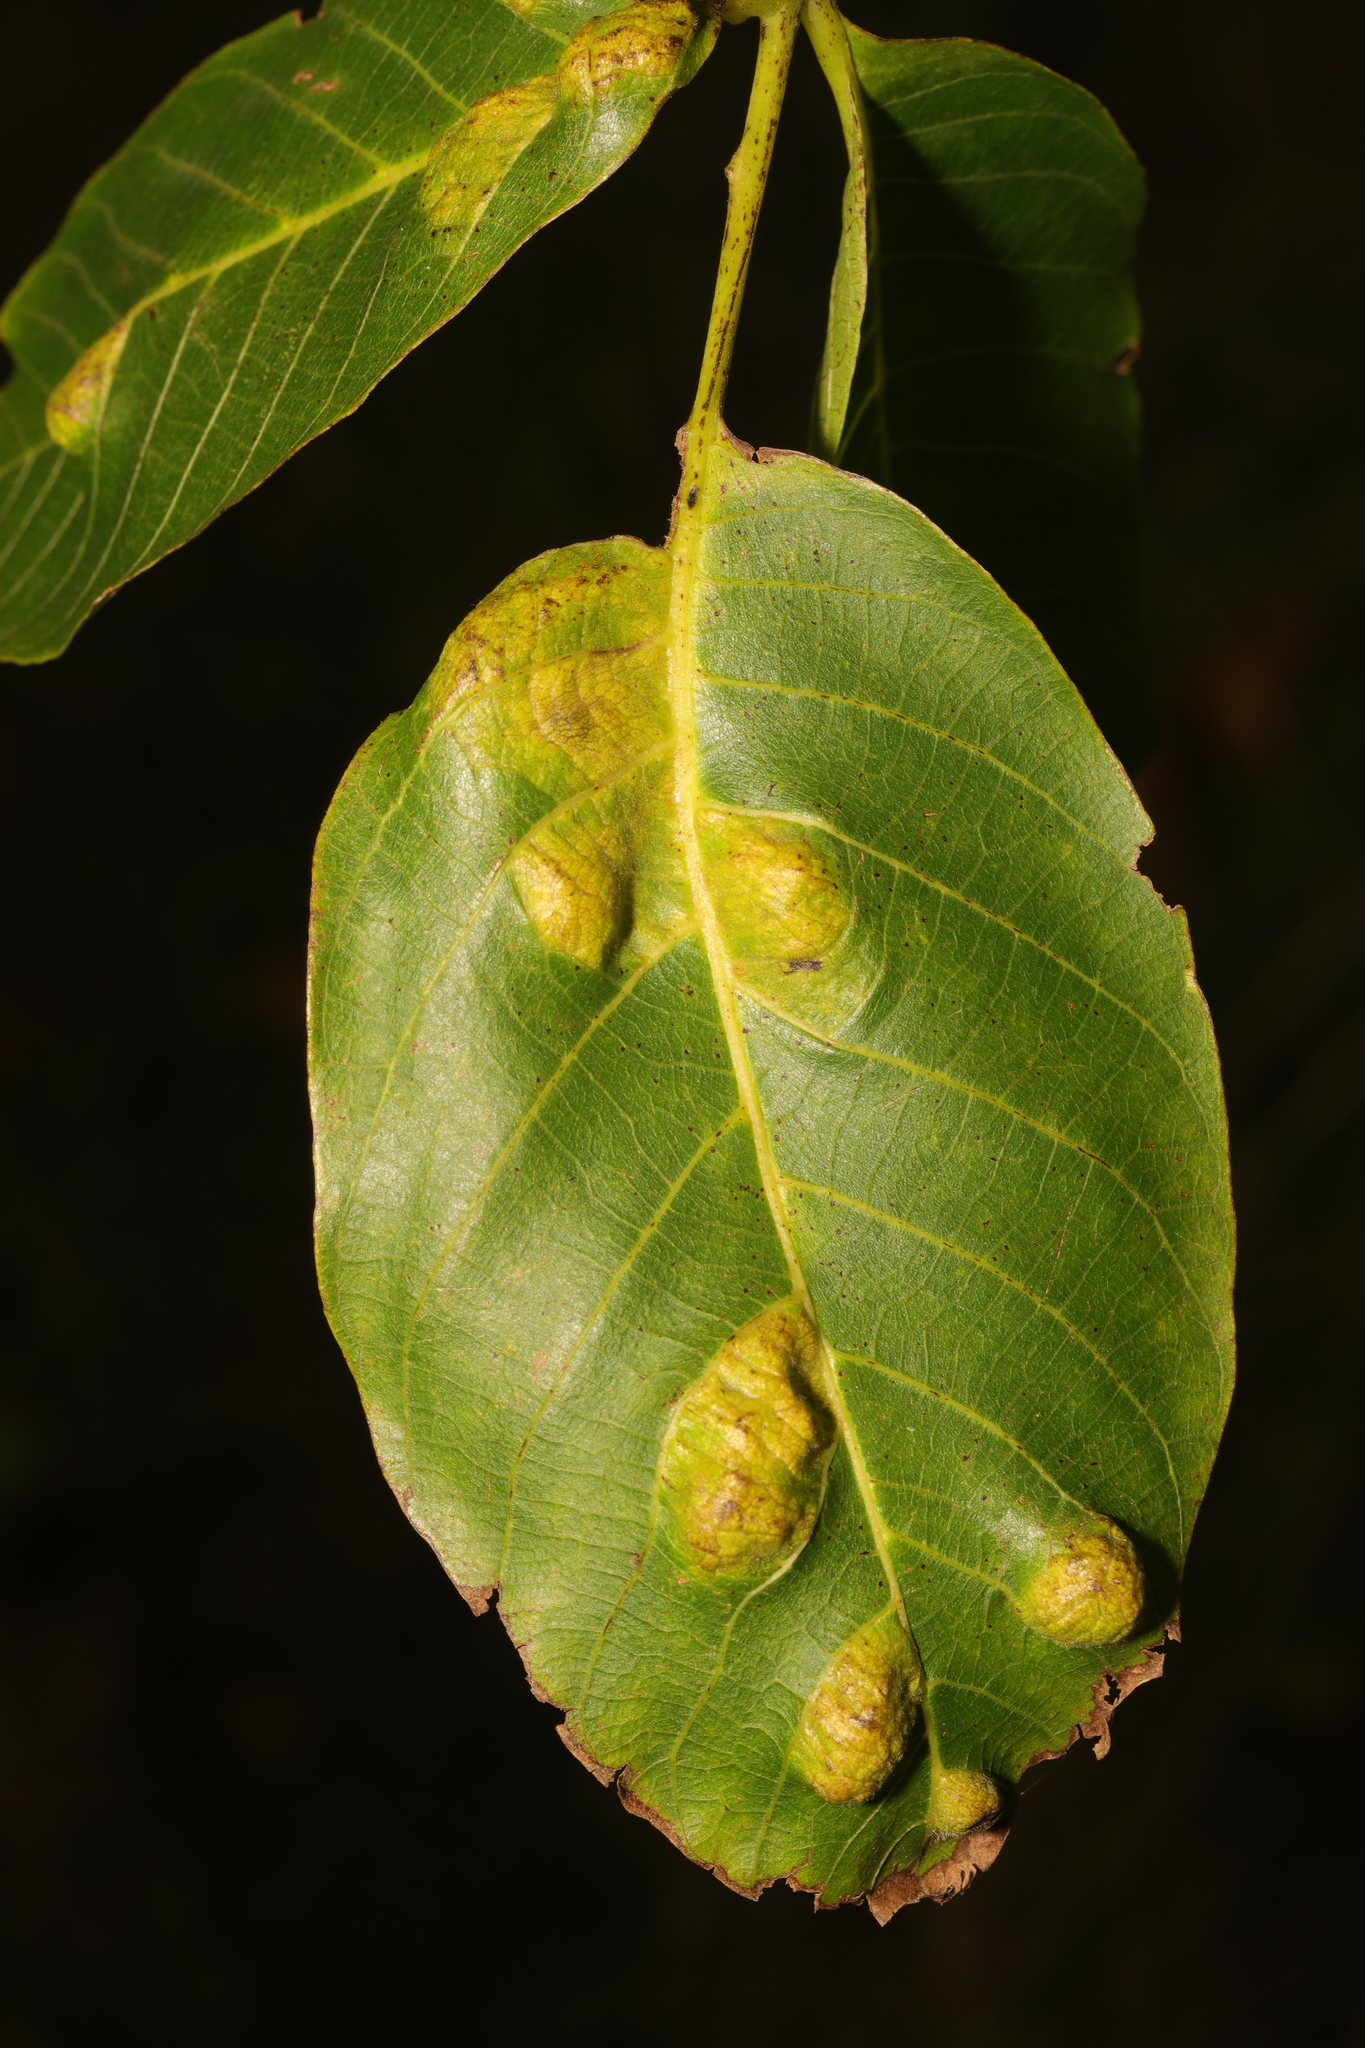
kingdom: Animalia
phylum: Arthropoda
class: Arachnida
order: Trombidiformes
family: Eriophyidae
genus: Aceria
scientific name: Aceria erinea
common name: Persian walnut erineum mite
